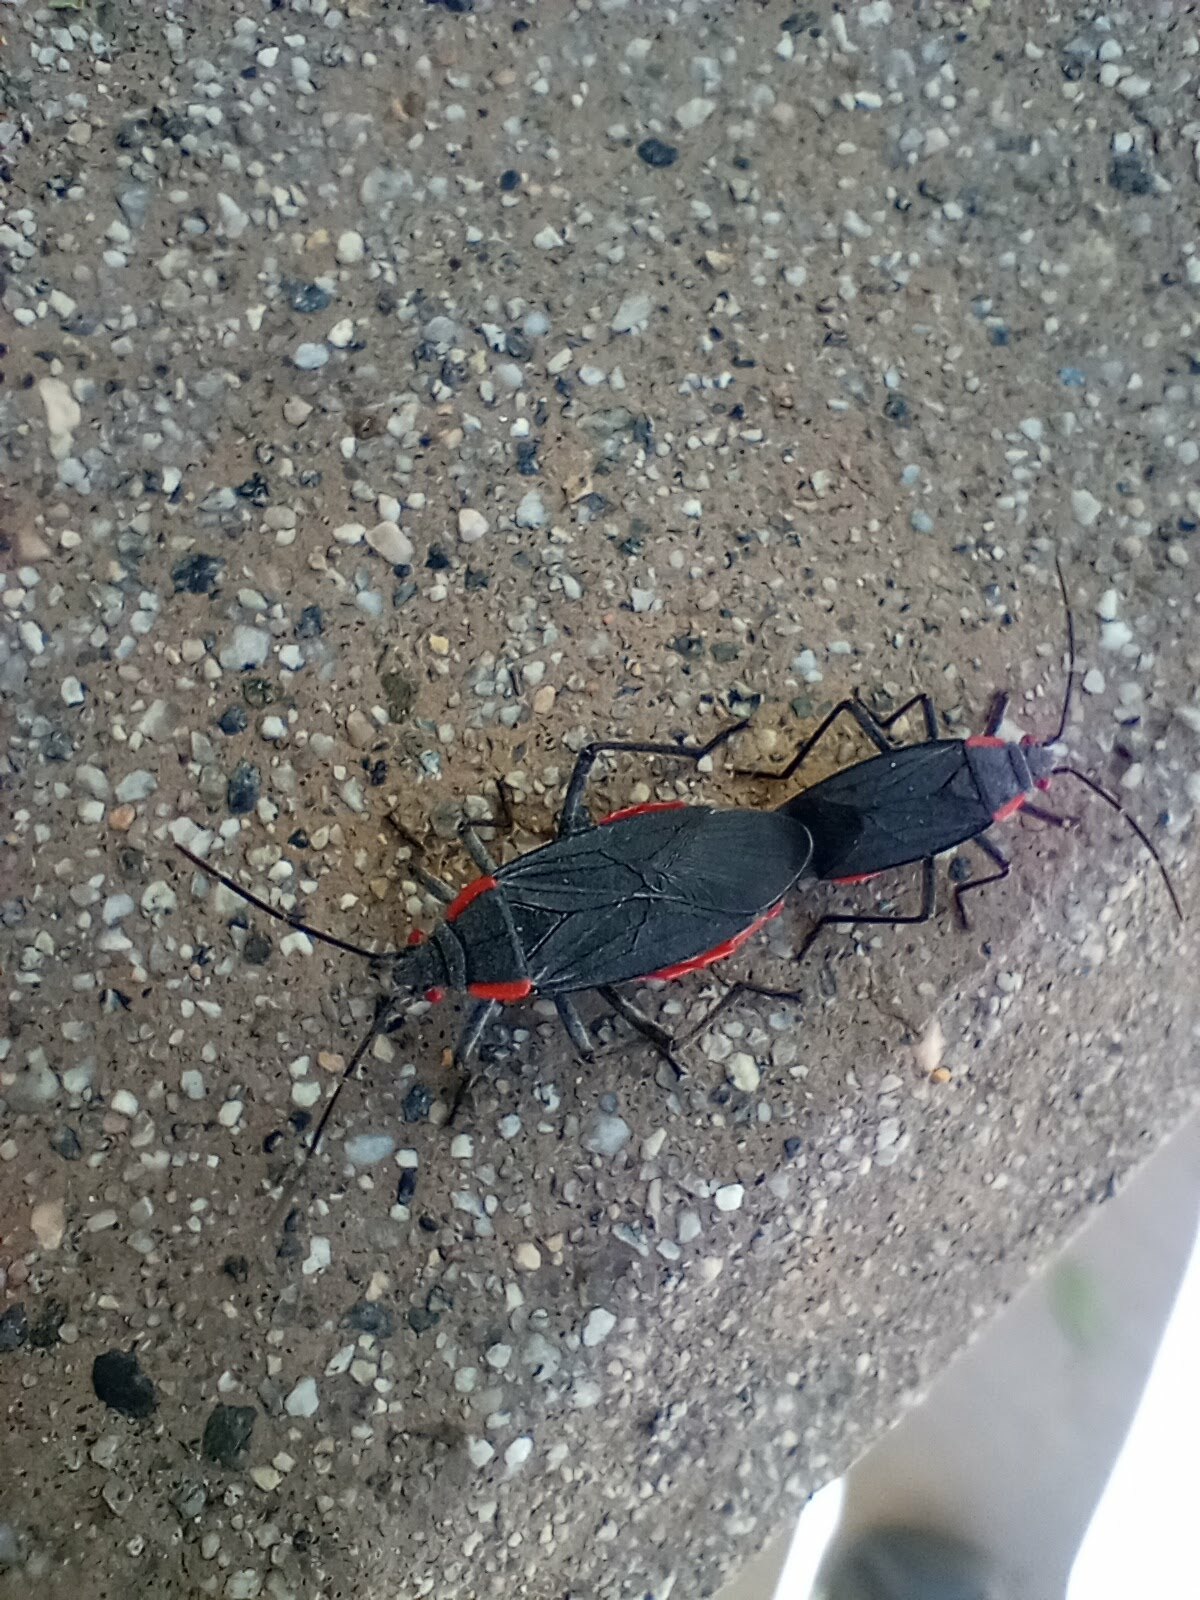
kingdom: Animalia
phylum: Arthropoda
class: Insecta
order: Hemiptera
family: Rhopalidae
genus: Jadera
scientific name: Jadera haematoloma
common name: Red-shouldered bug
